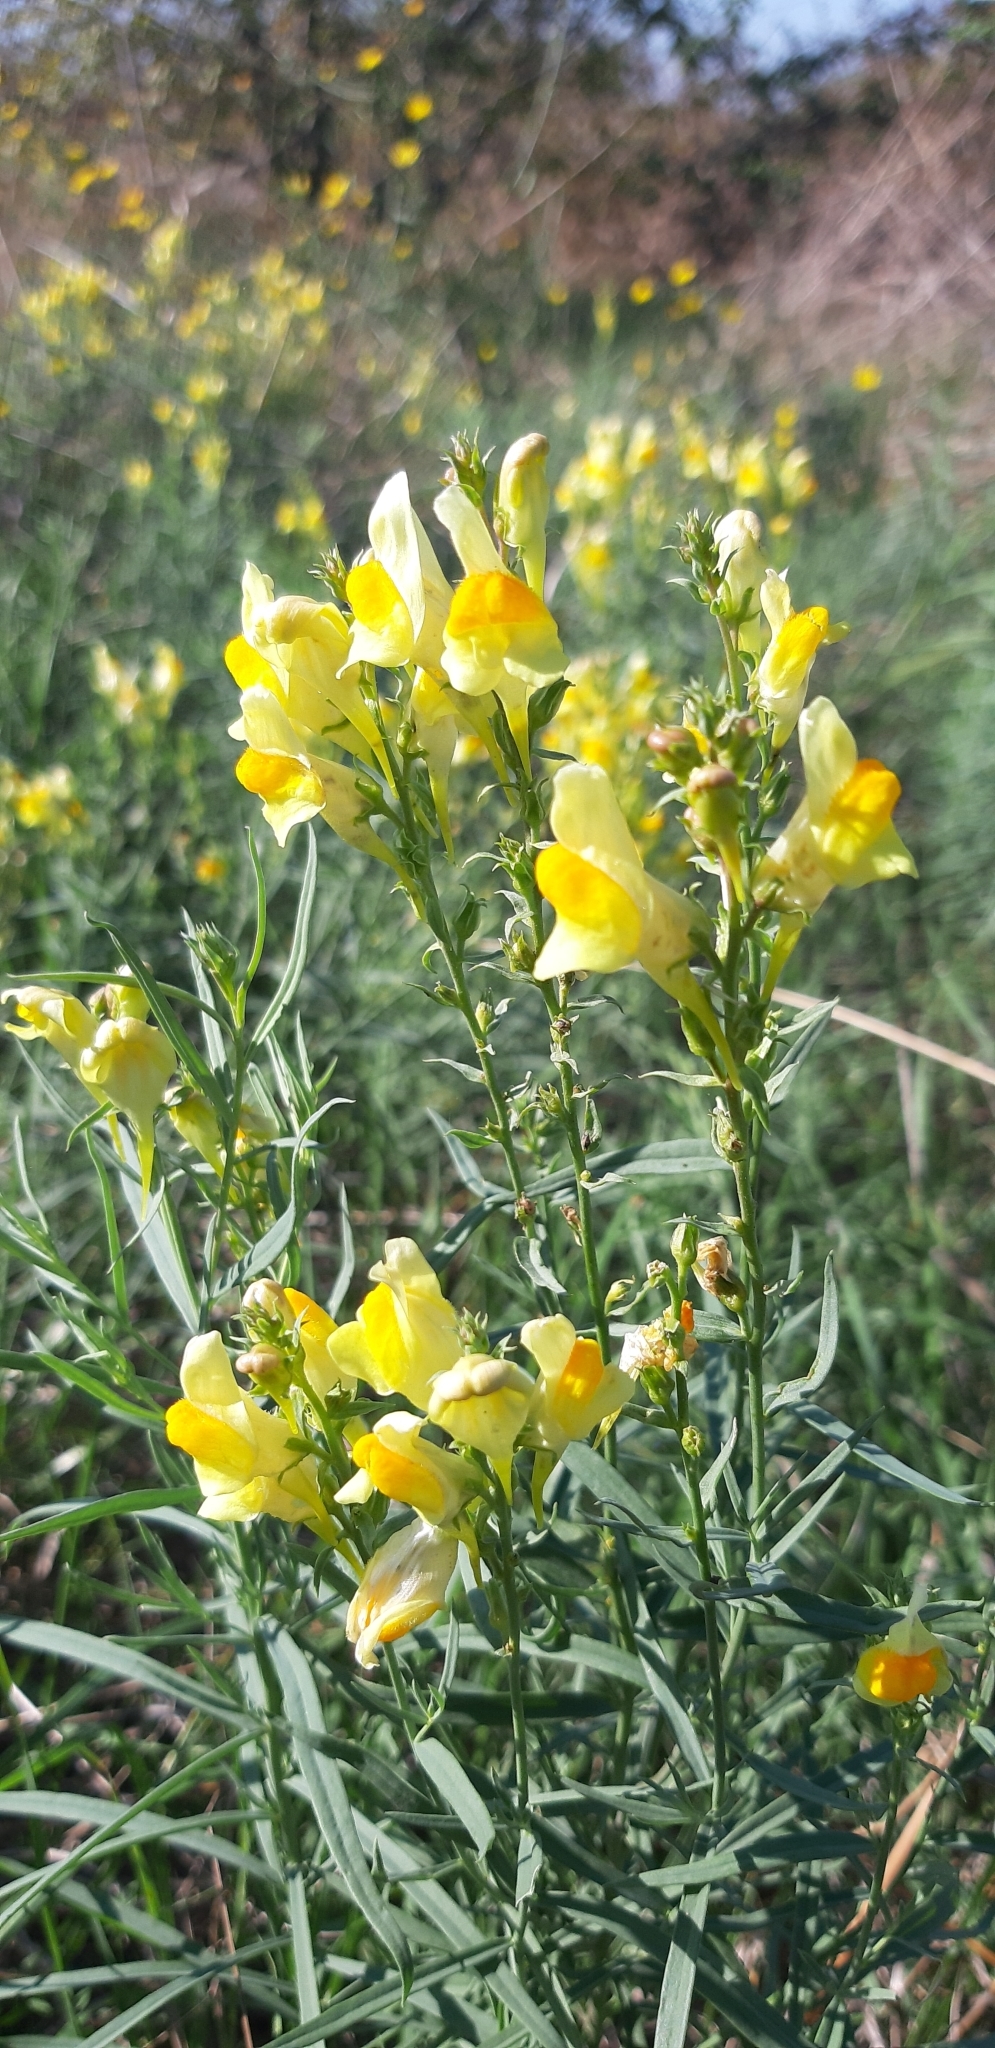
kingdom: Plantae
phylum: Tracheophyta
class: Magnoliopsida
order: Lamiales
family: Plantaginaceae
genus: Linaria
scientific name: Linaria vulgaris
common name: Butter and eggs
